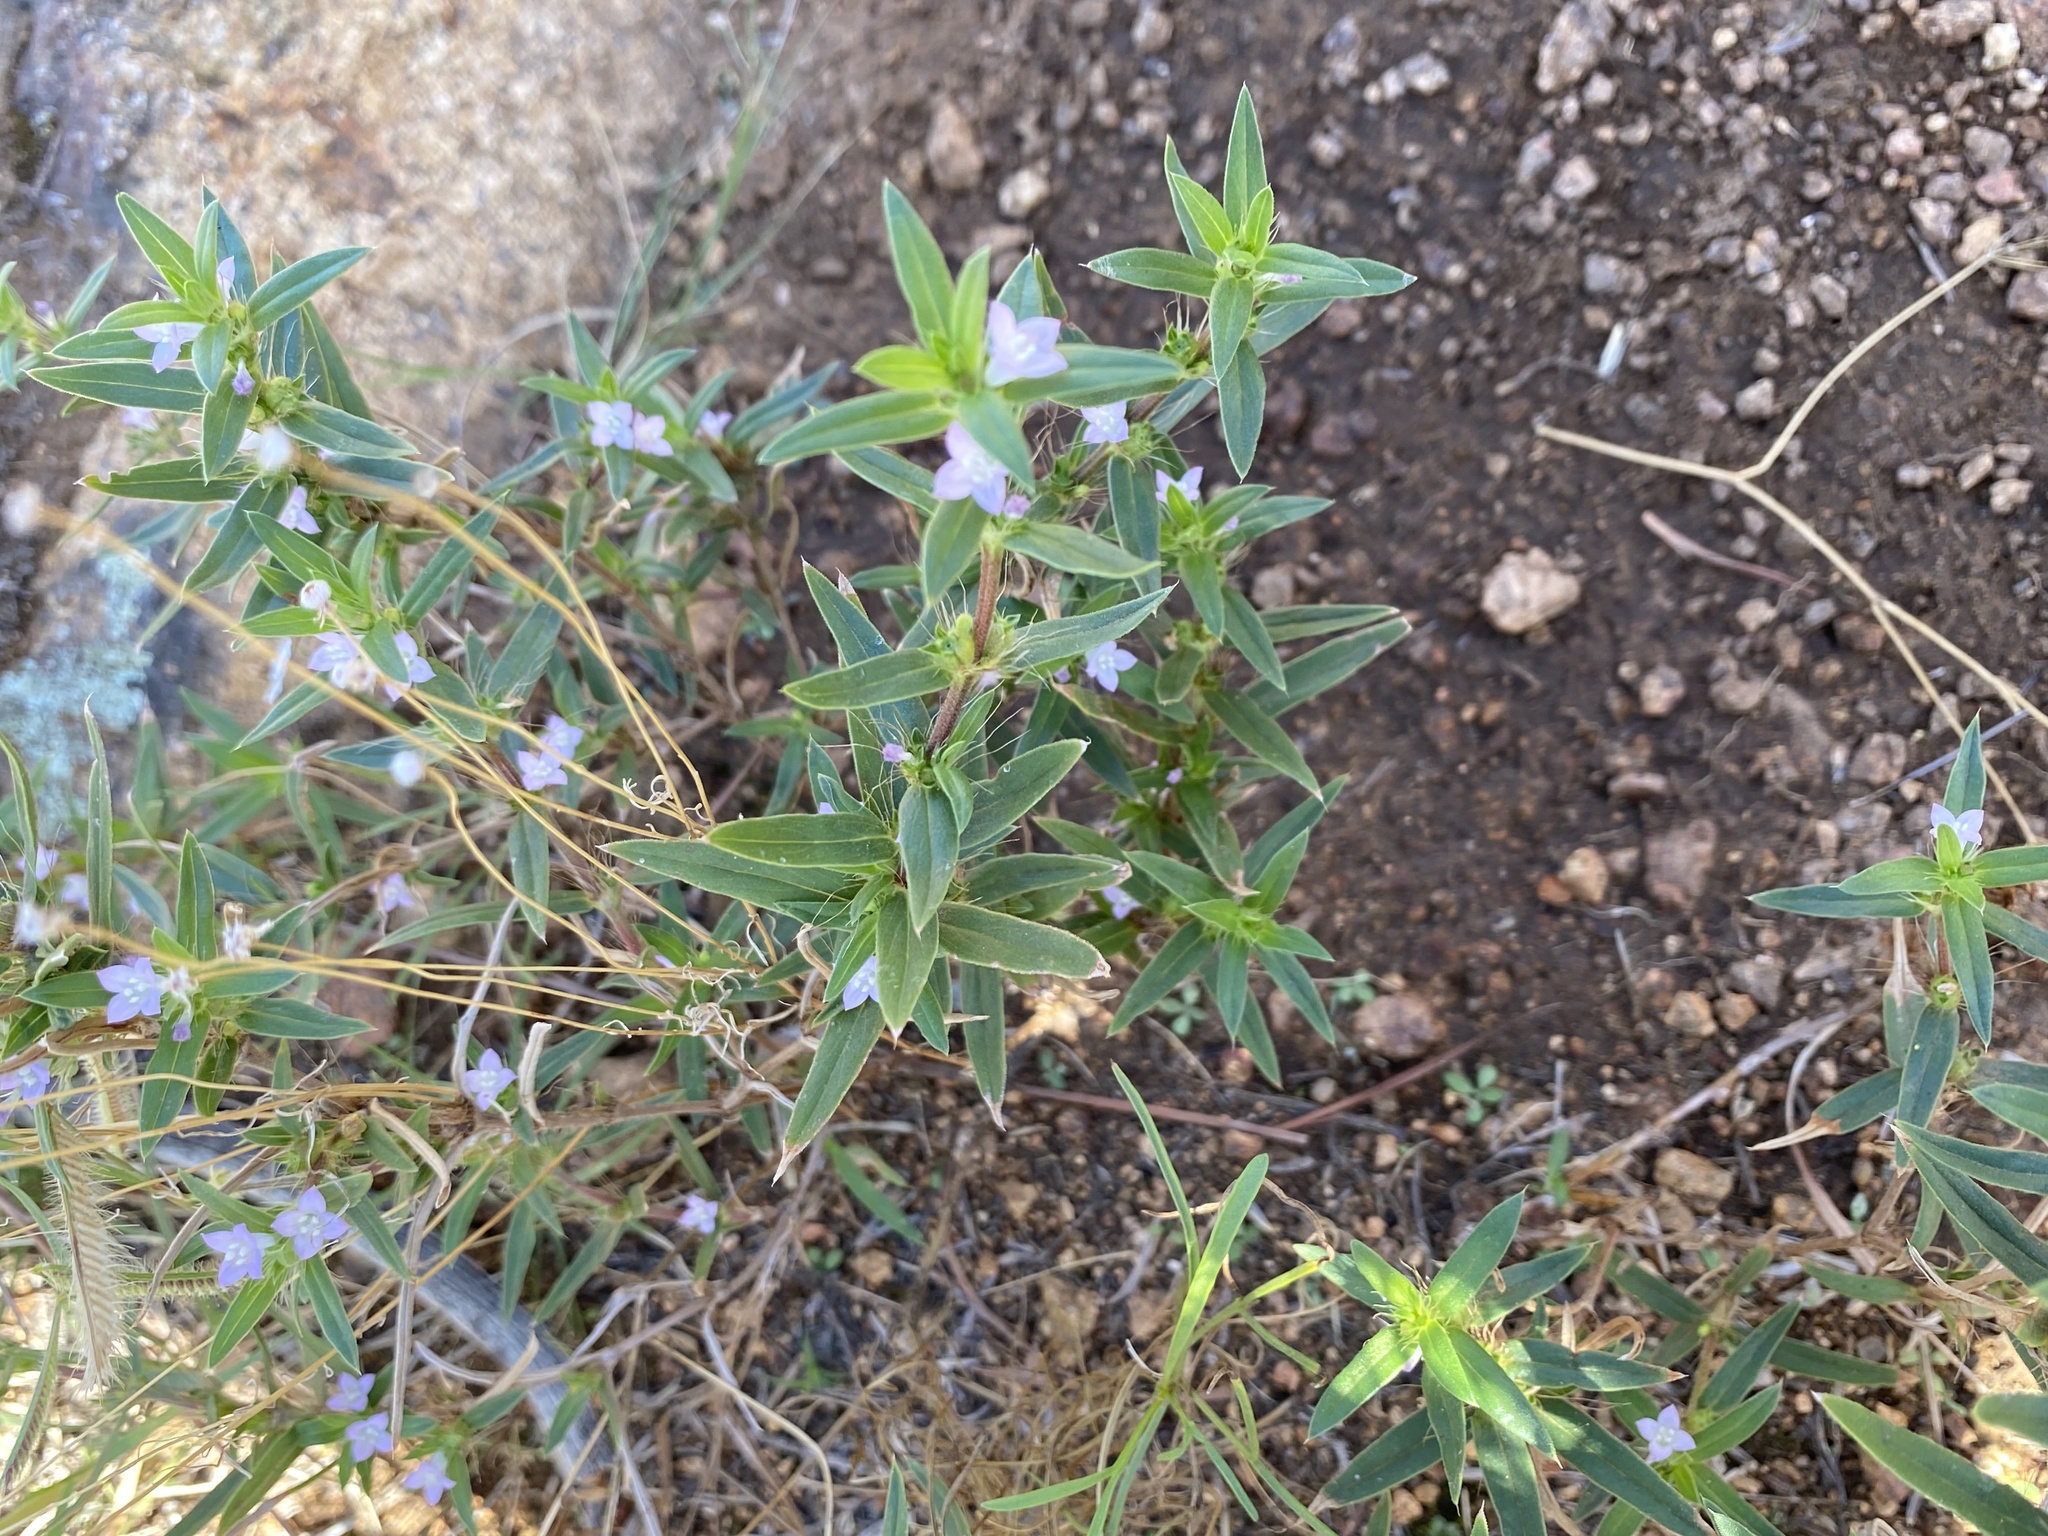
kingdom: Plantae
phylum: Tracheophyta
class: Magnoliopsida
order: Gentianales
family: Rubiaceae
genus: Hexasepalum
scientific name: Hexasepalum teres
